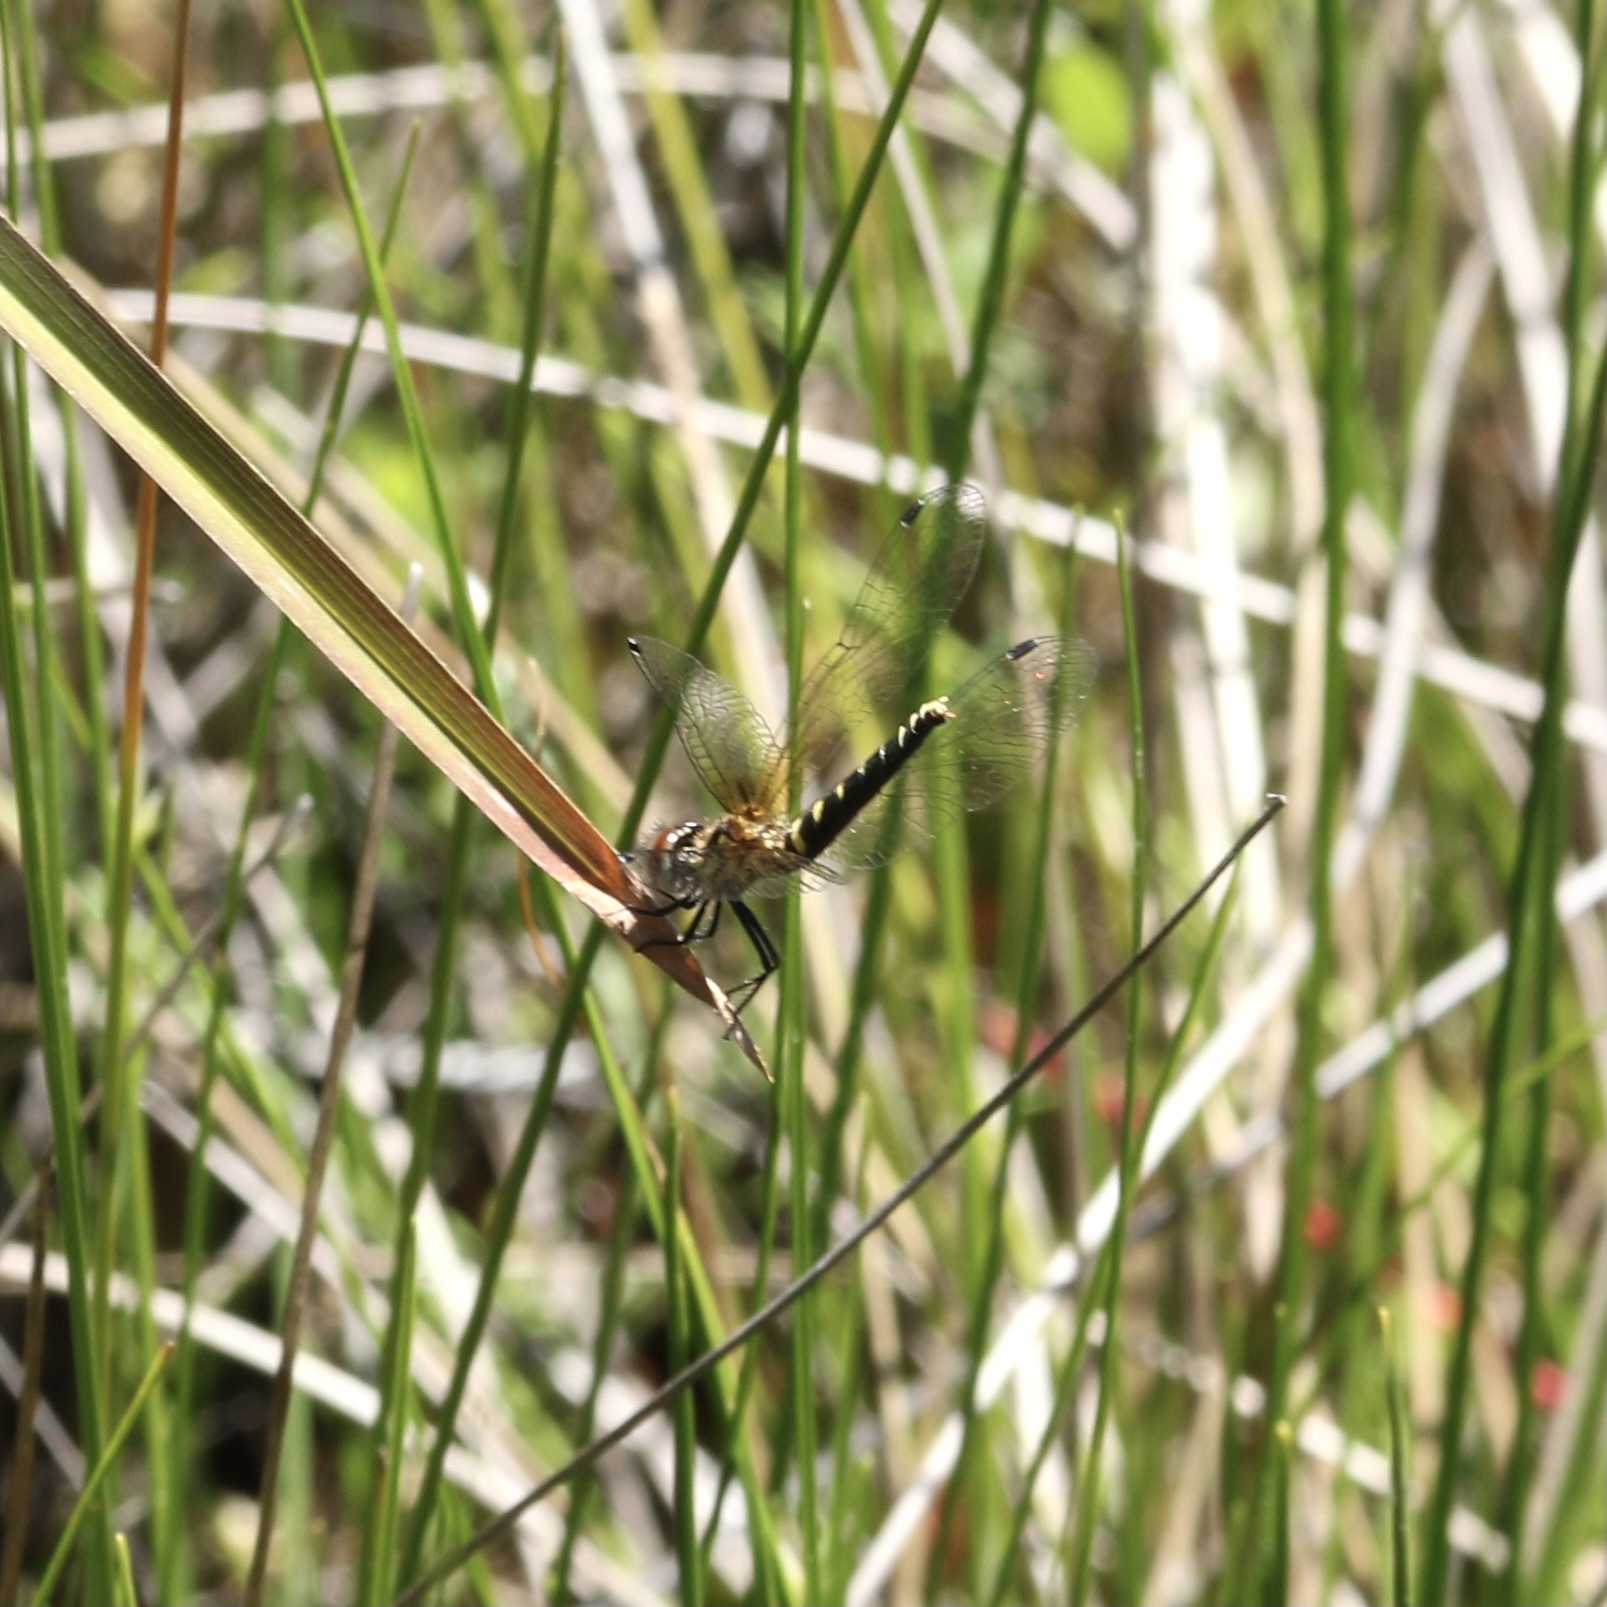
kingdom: Animalia
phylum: Arthropoda
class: Insecta
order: Odonata
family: Libellulidae
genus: Nannothemis
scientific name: Nannothemis bella
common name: Elfin skimmer
